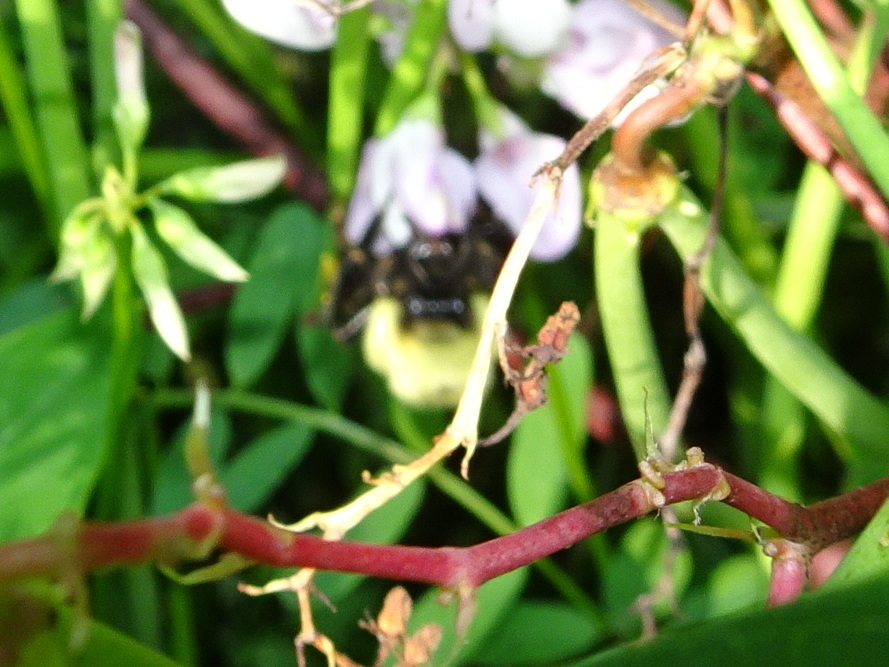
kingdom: Animalia
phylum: Arthropoda
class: Insecta
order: Hymenoptera
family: Apidae
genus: Bombus
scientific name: Bombus bimaculatus
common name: Two-spotted bumble bee
